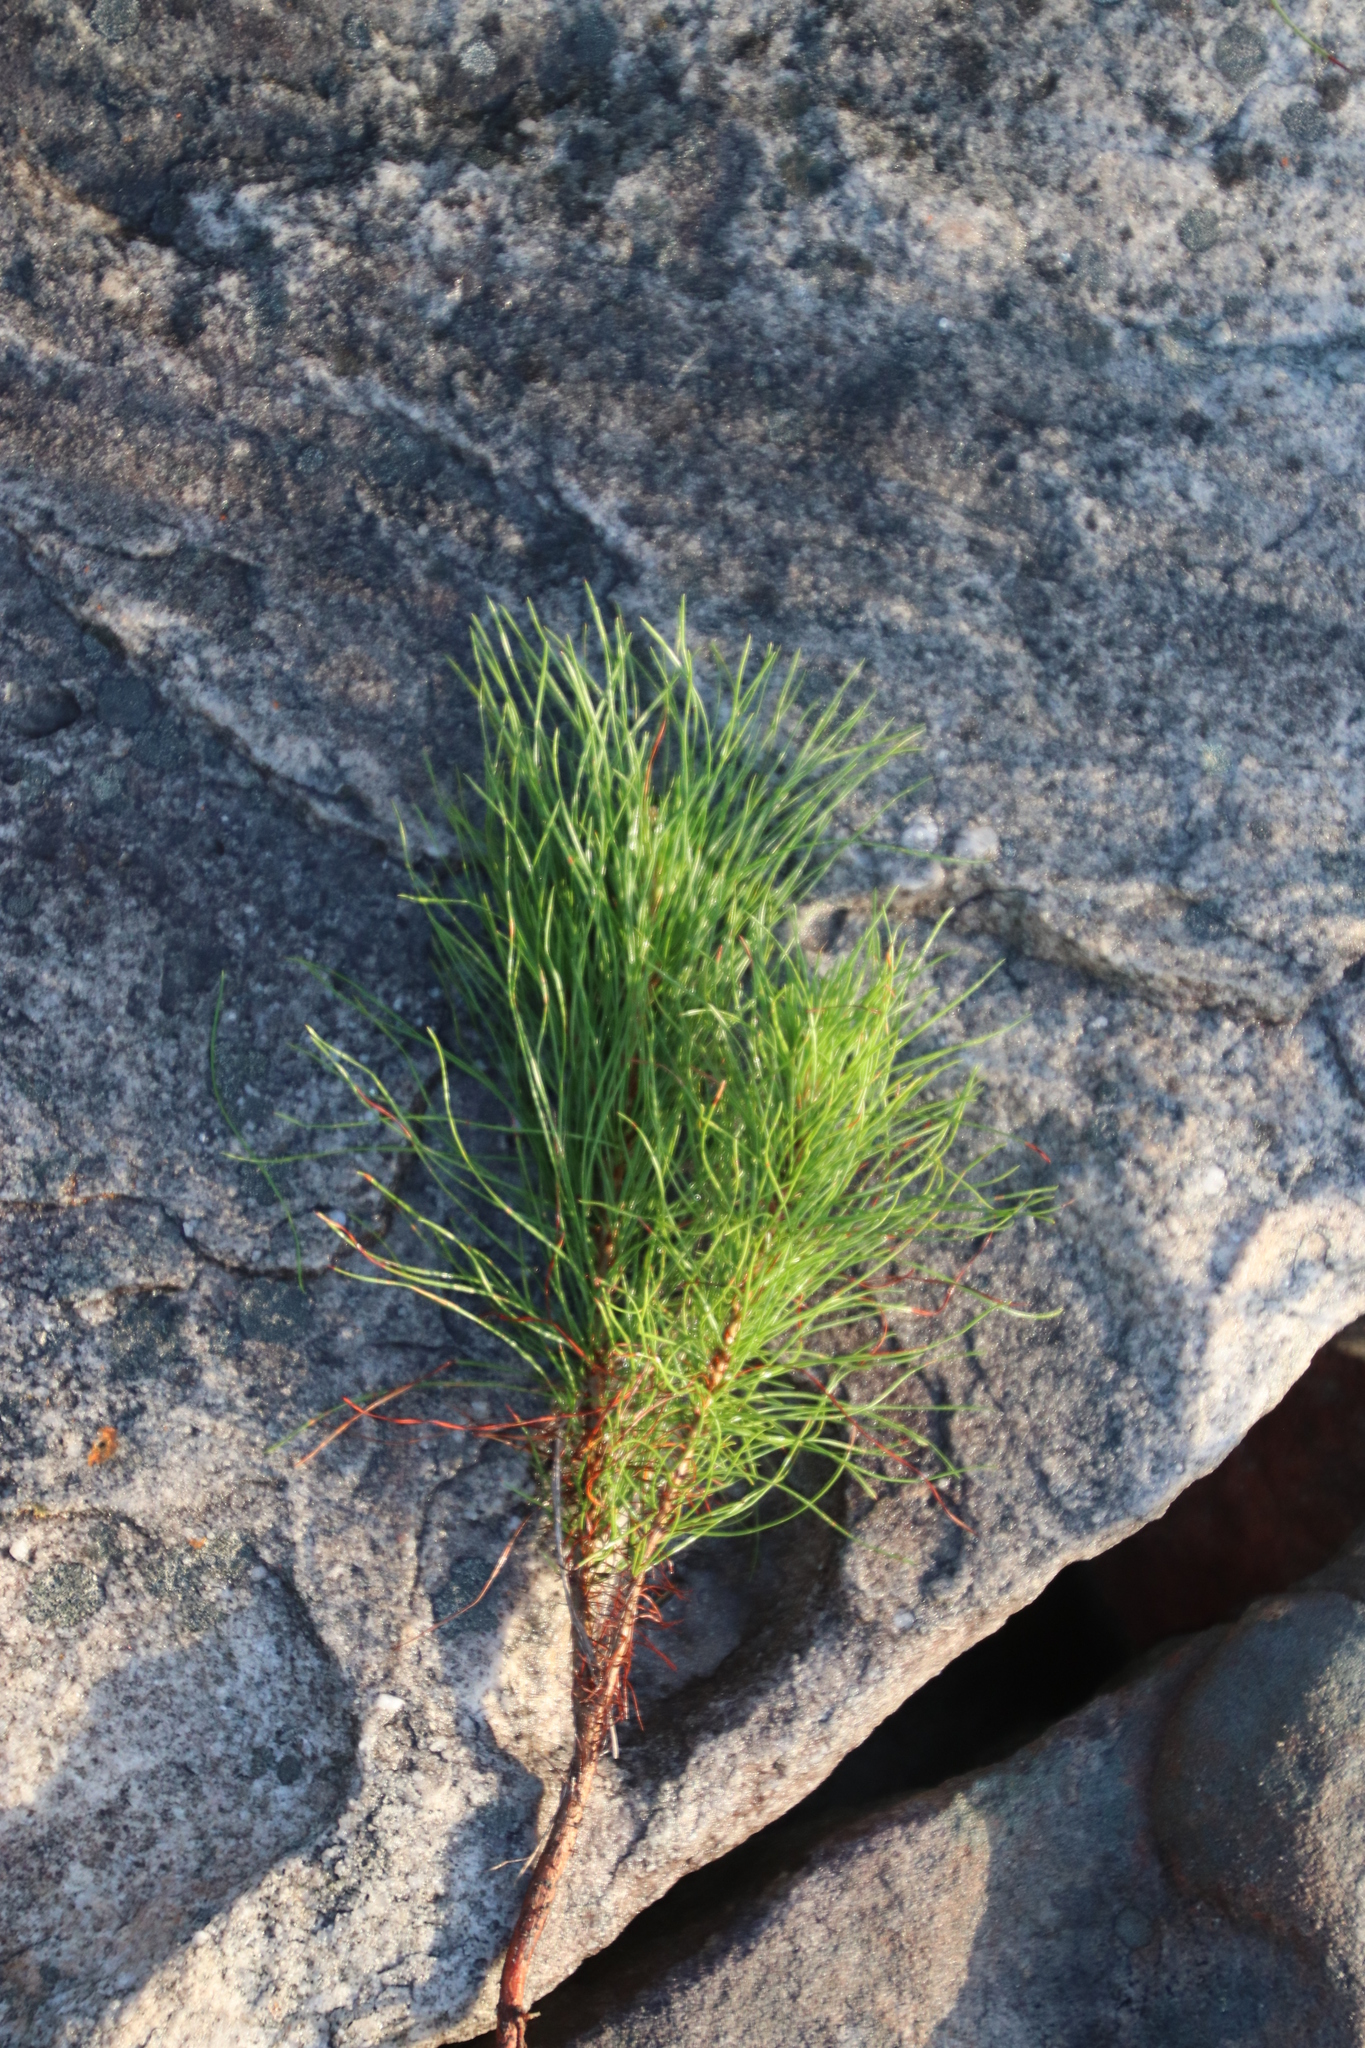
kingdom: Plantae
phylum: Tracheophyta
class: Pinopsida
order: Pinales
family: Pinaceae
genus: Pinus
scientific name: Pinus radiata
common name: Monterey pine
